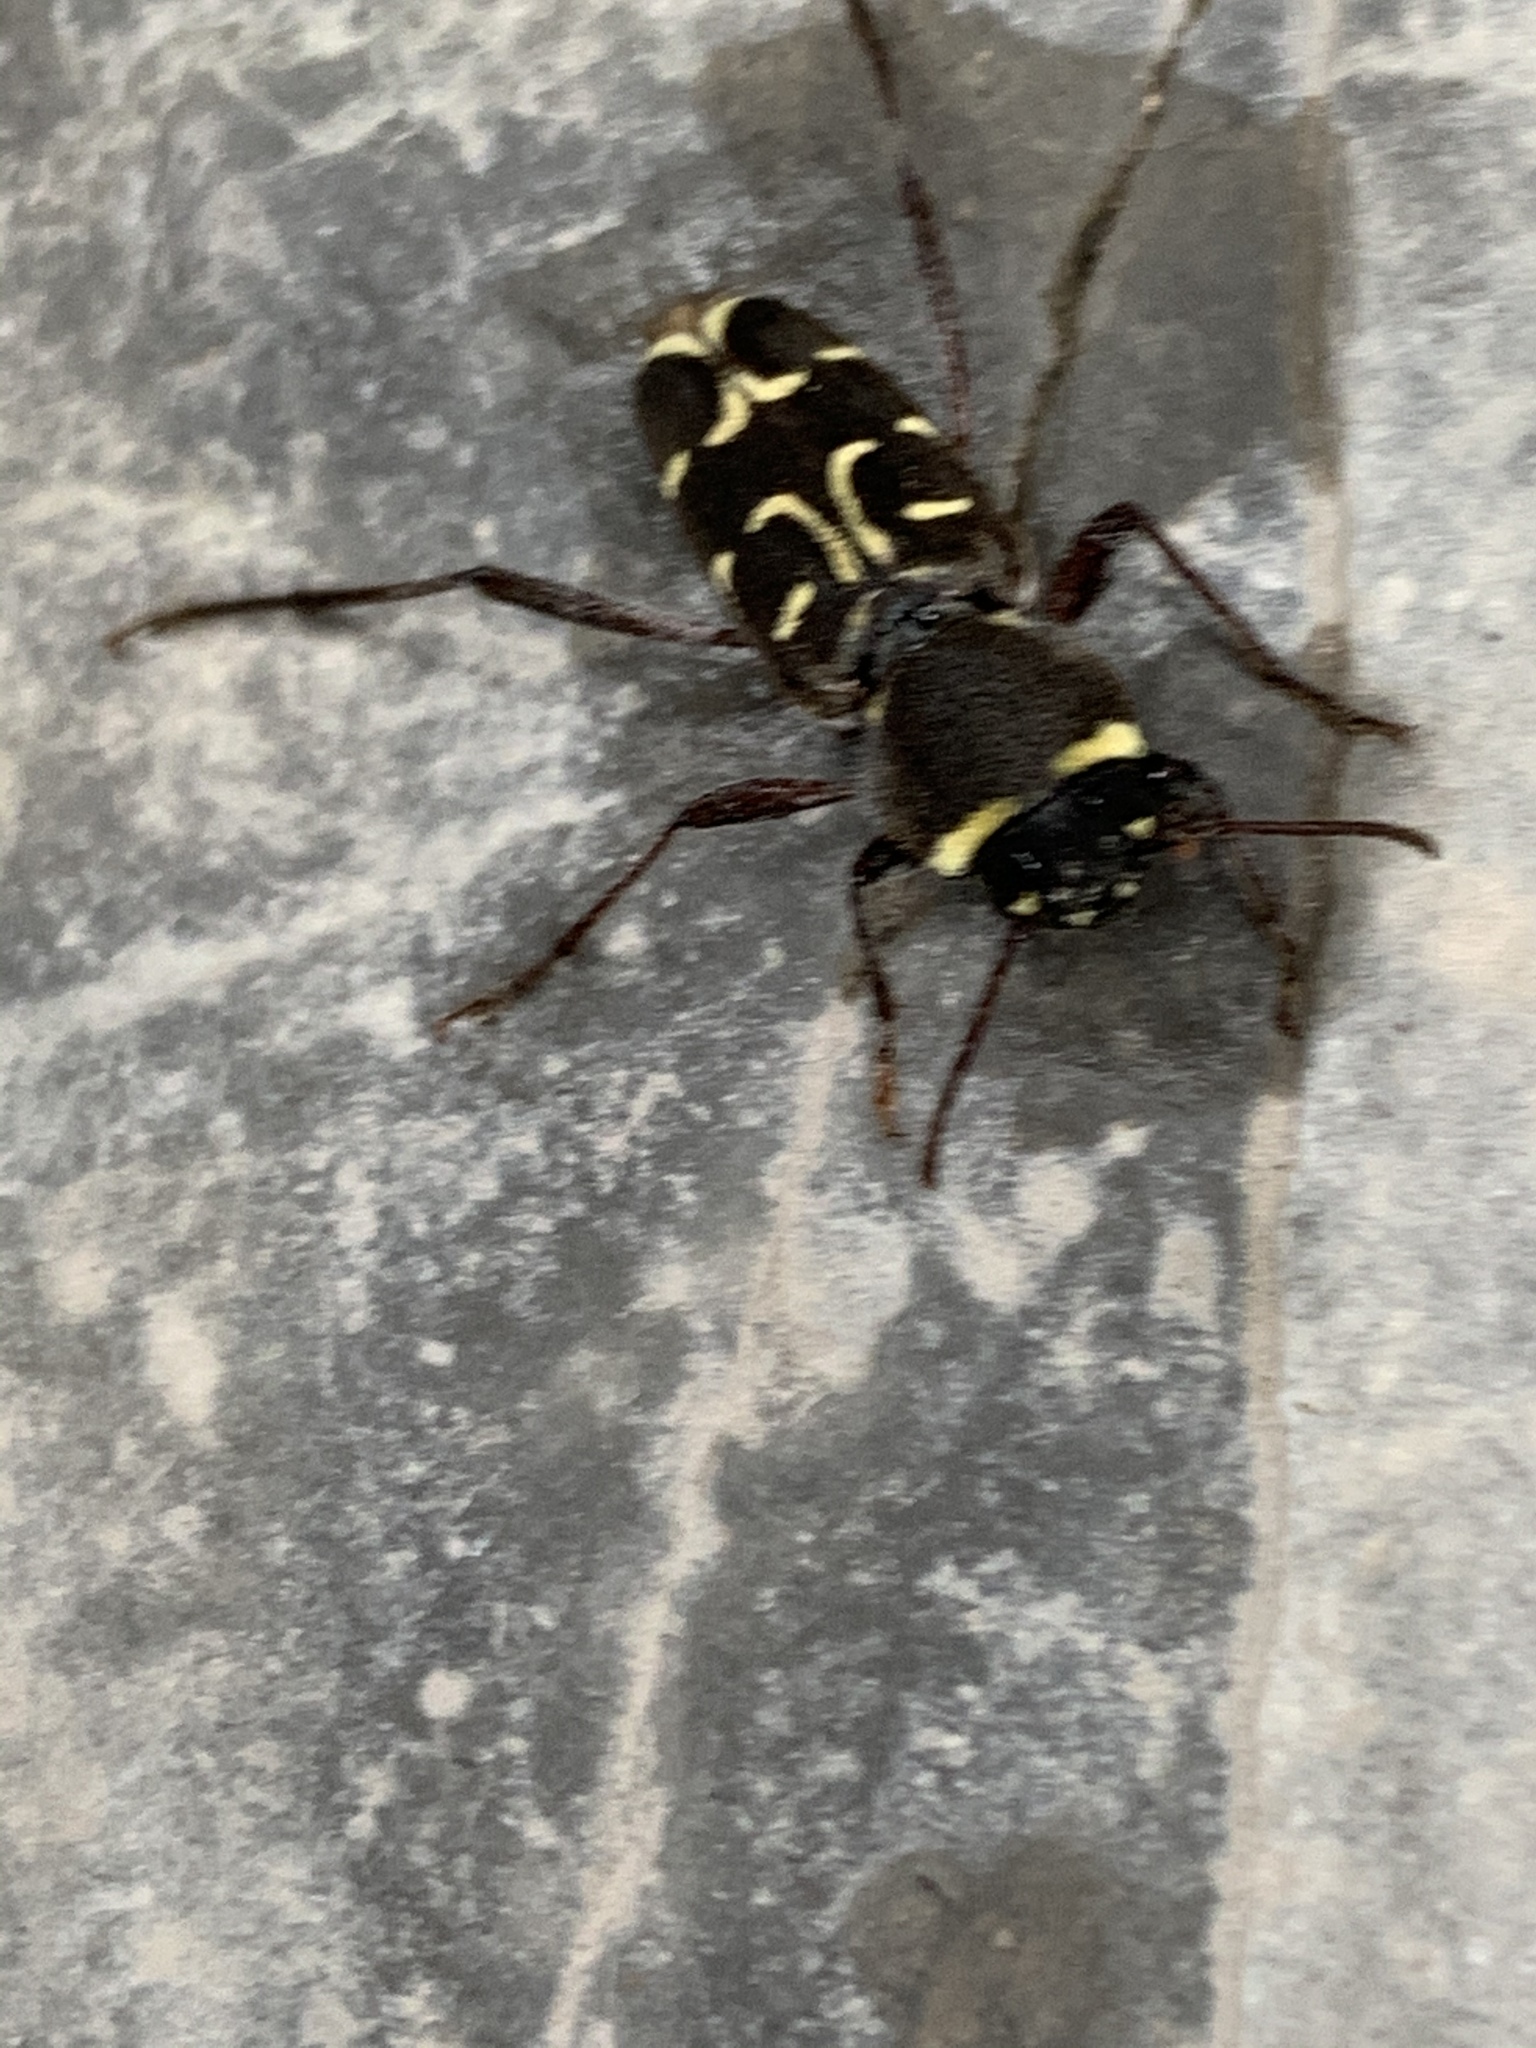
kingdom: Animalia
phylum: Arthropoda
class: Insecta
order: Coleoptera
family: Cerambycidae
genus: Xylotrechus
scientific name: Xylotrechus undulatus
